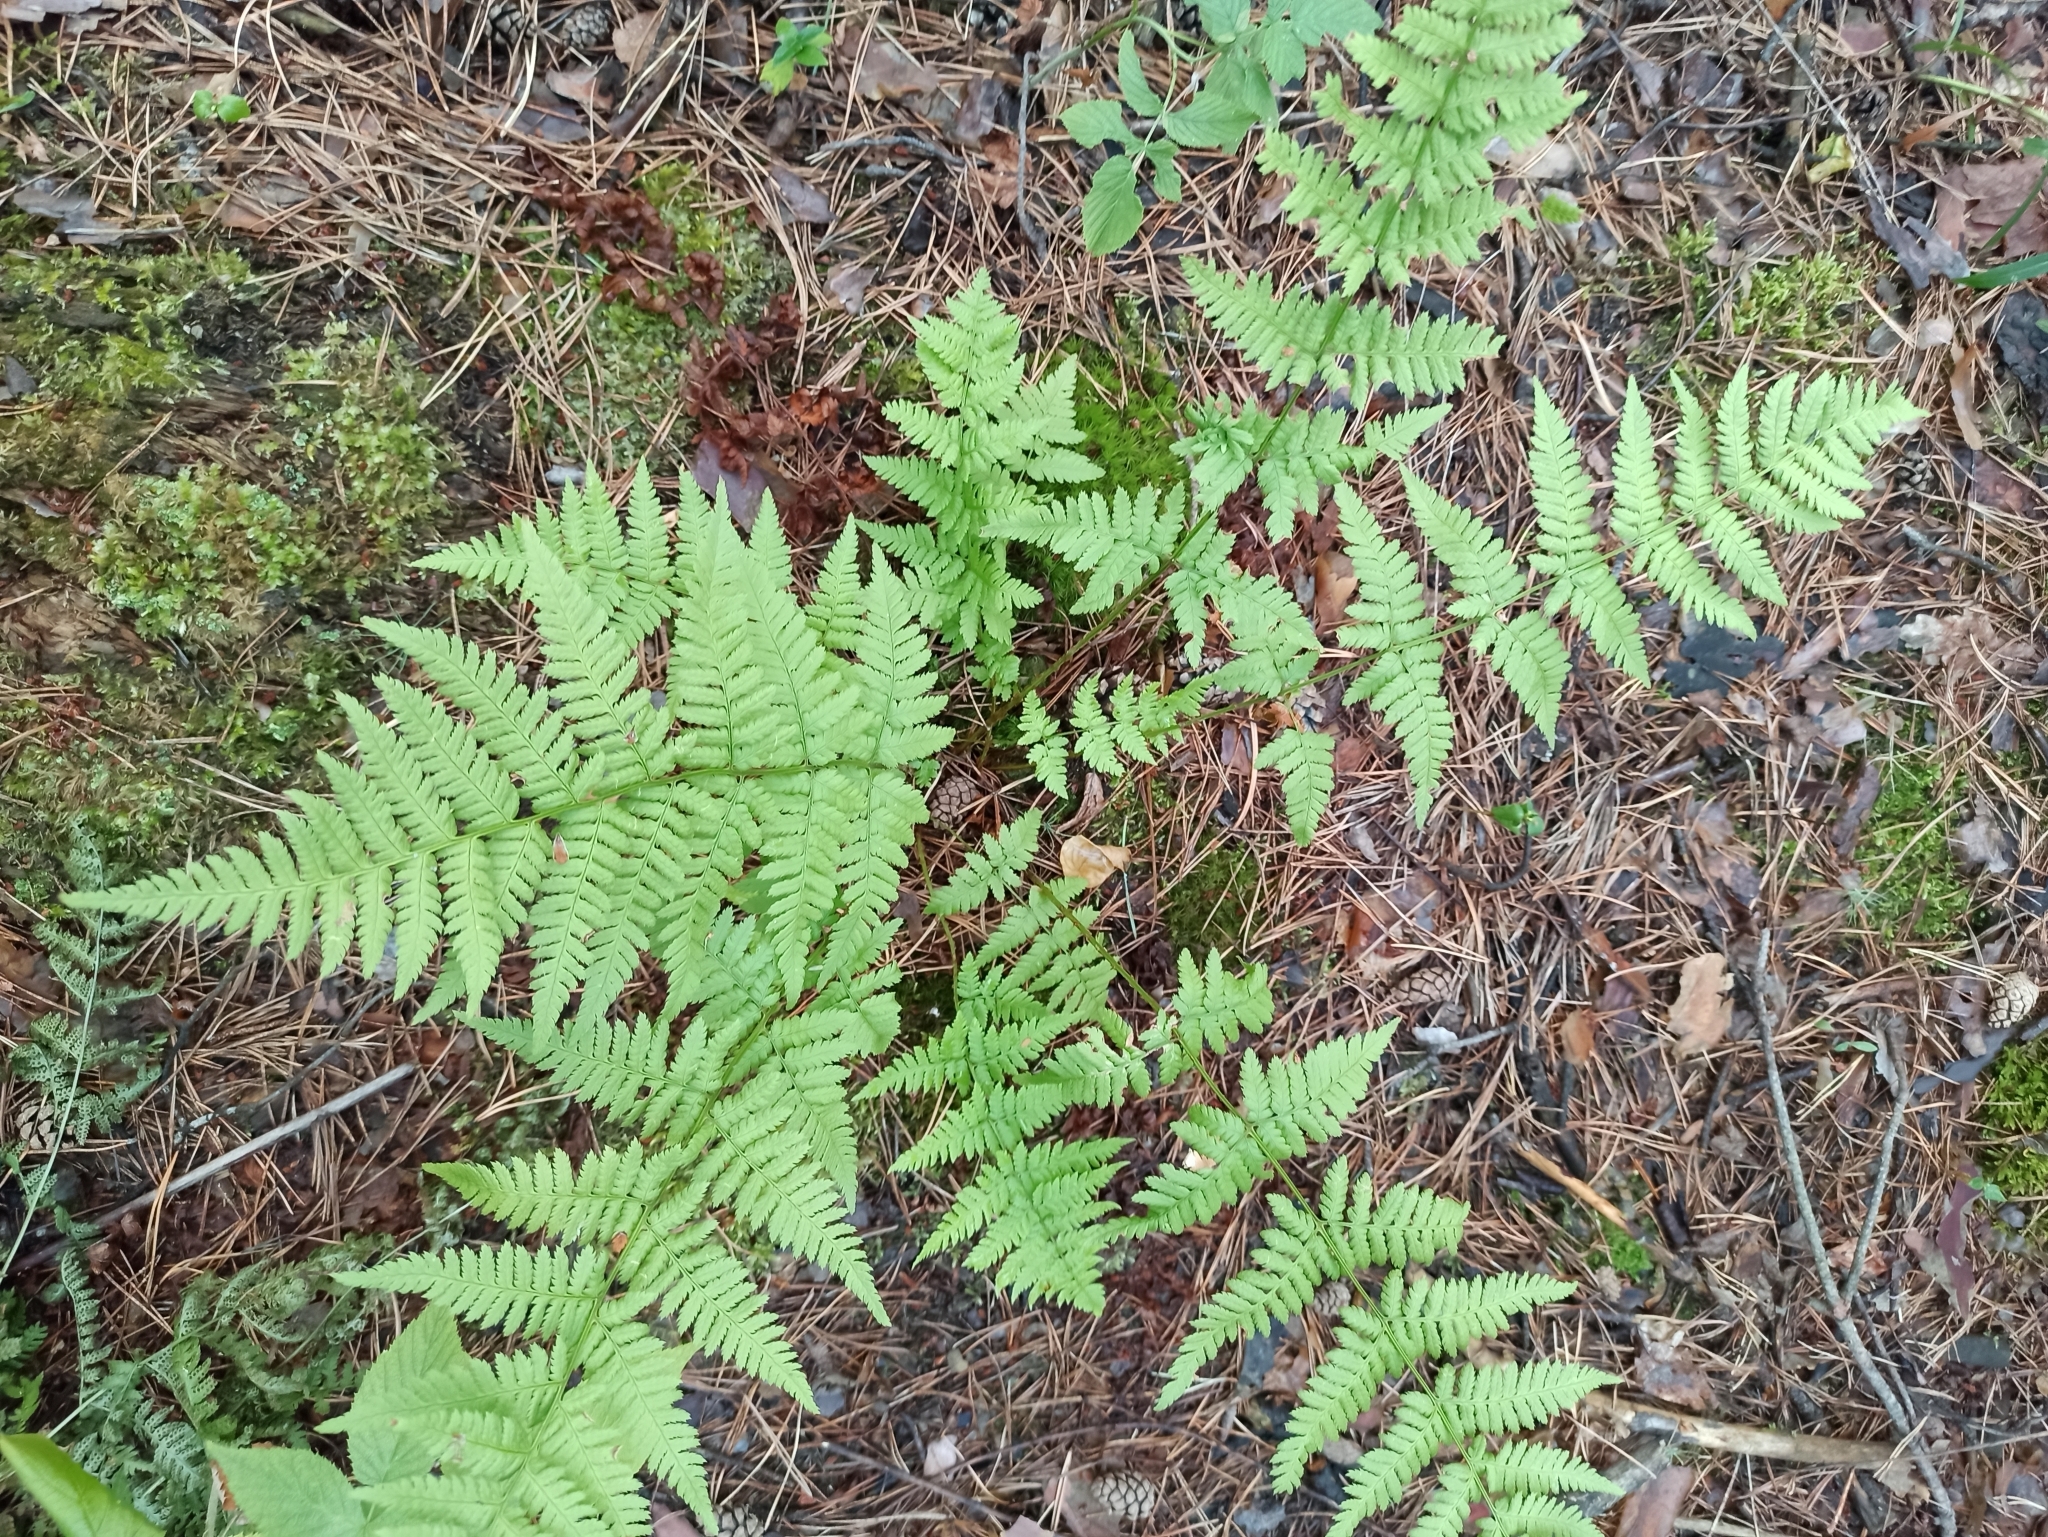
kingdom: Plantae
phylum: Tracheophyta
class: Polypodiopsida
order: Polypodiales
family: Dryopteridaceae
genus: Dryopteris
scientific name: Dryopteris carthusiana
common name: Narrow buckler-fern
